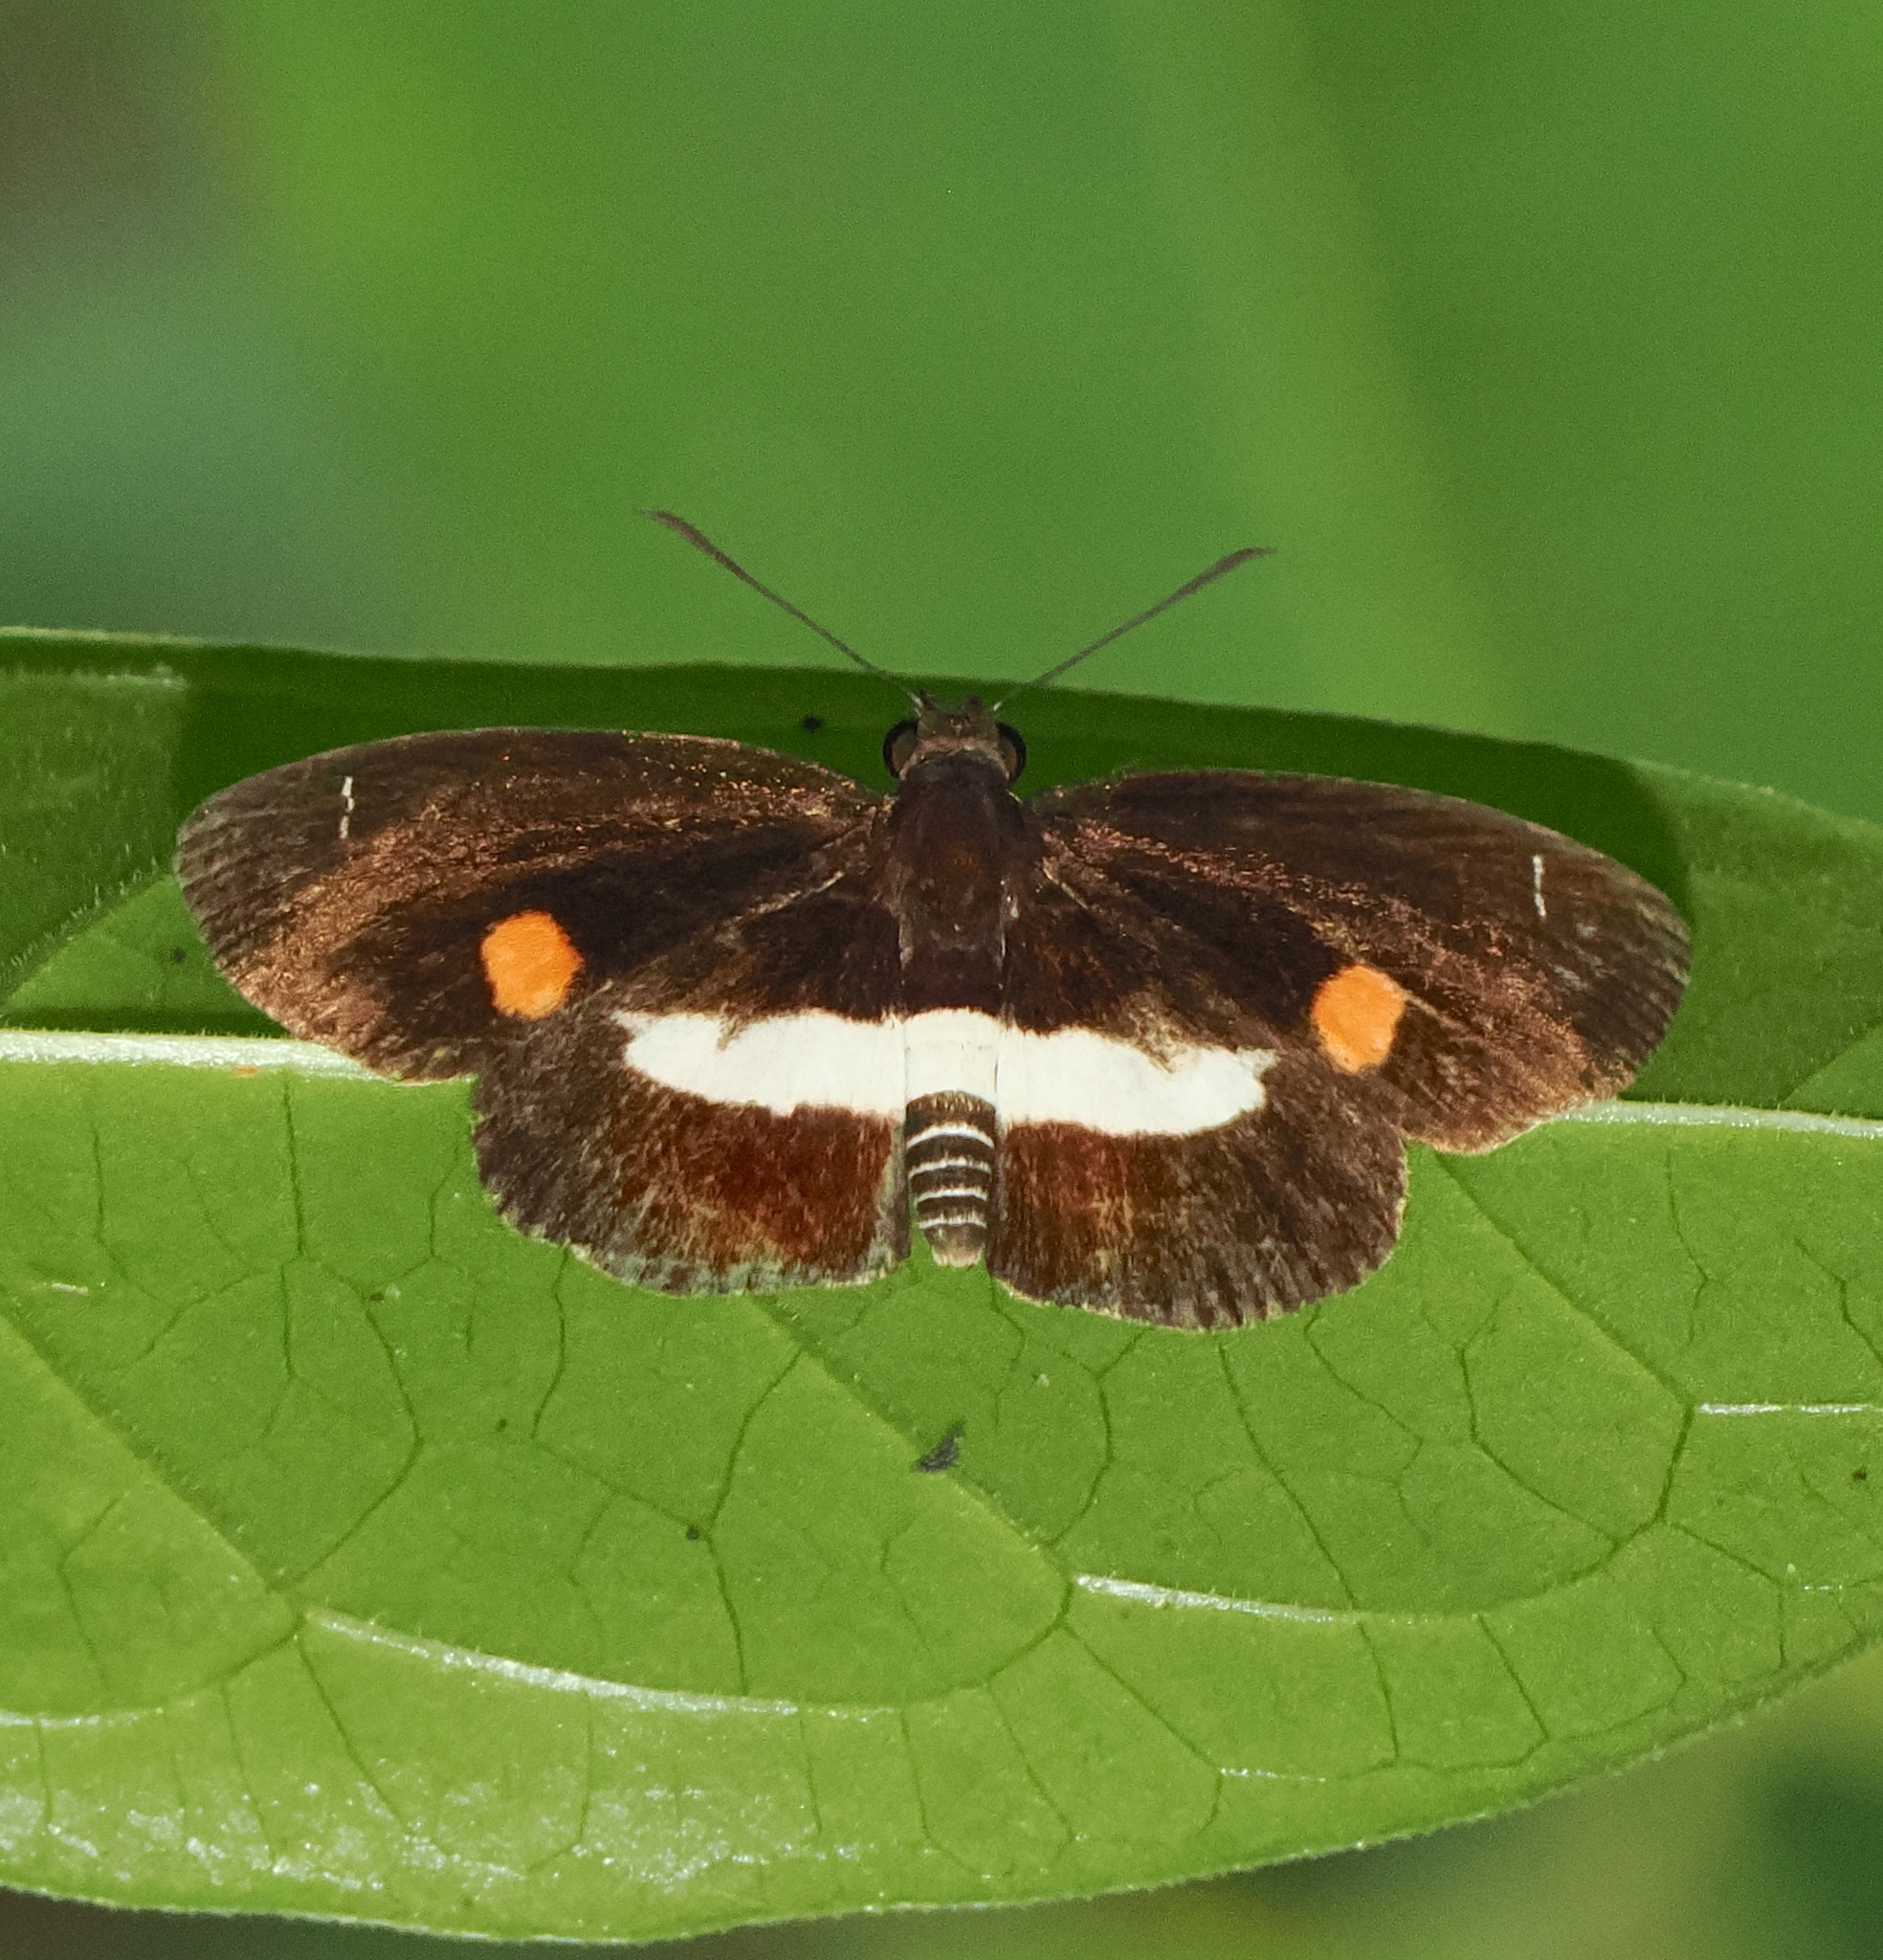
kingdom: Animalia
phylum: Arthropoda
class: Insecta
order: Lepidoptera
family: Hesperiidae
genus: Paramimus
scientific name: Paramimus stigma
